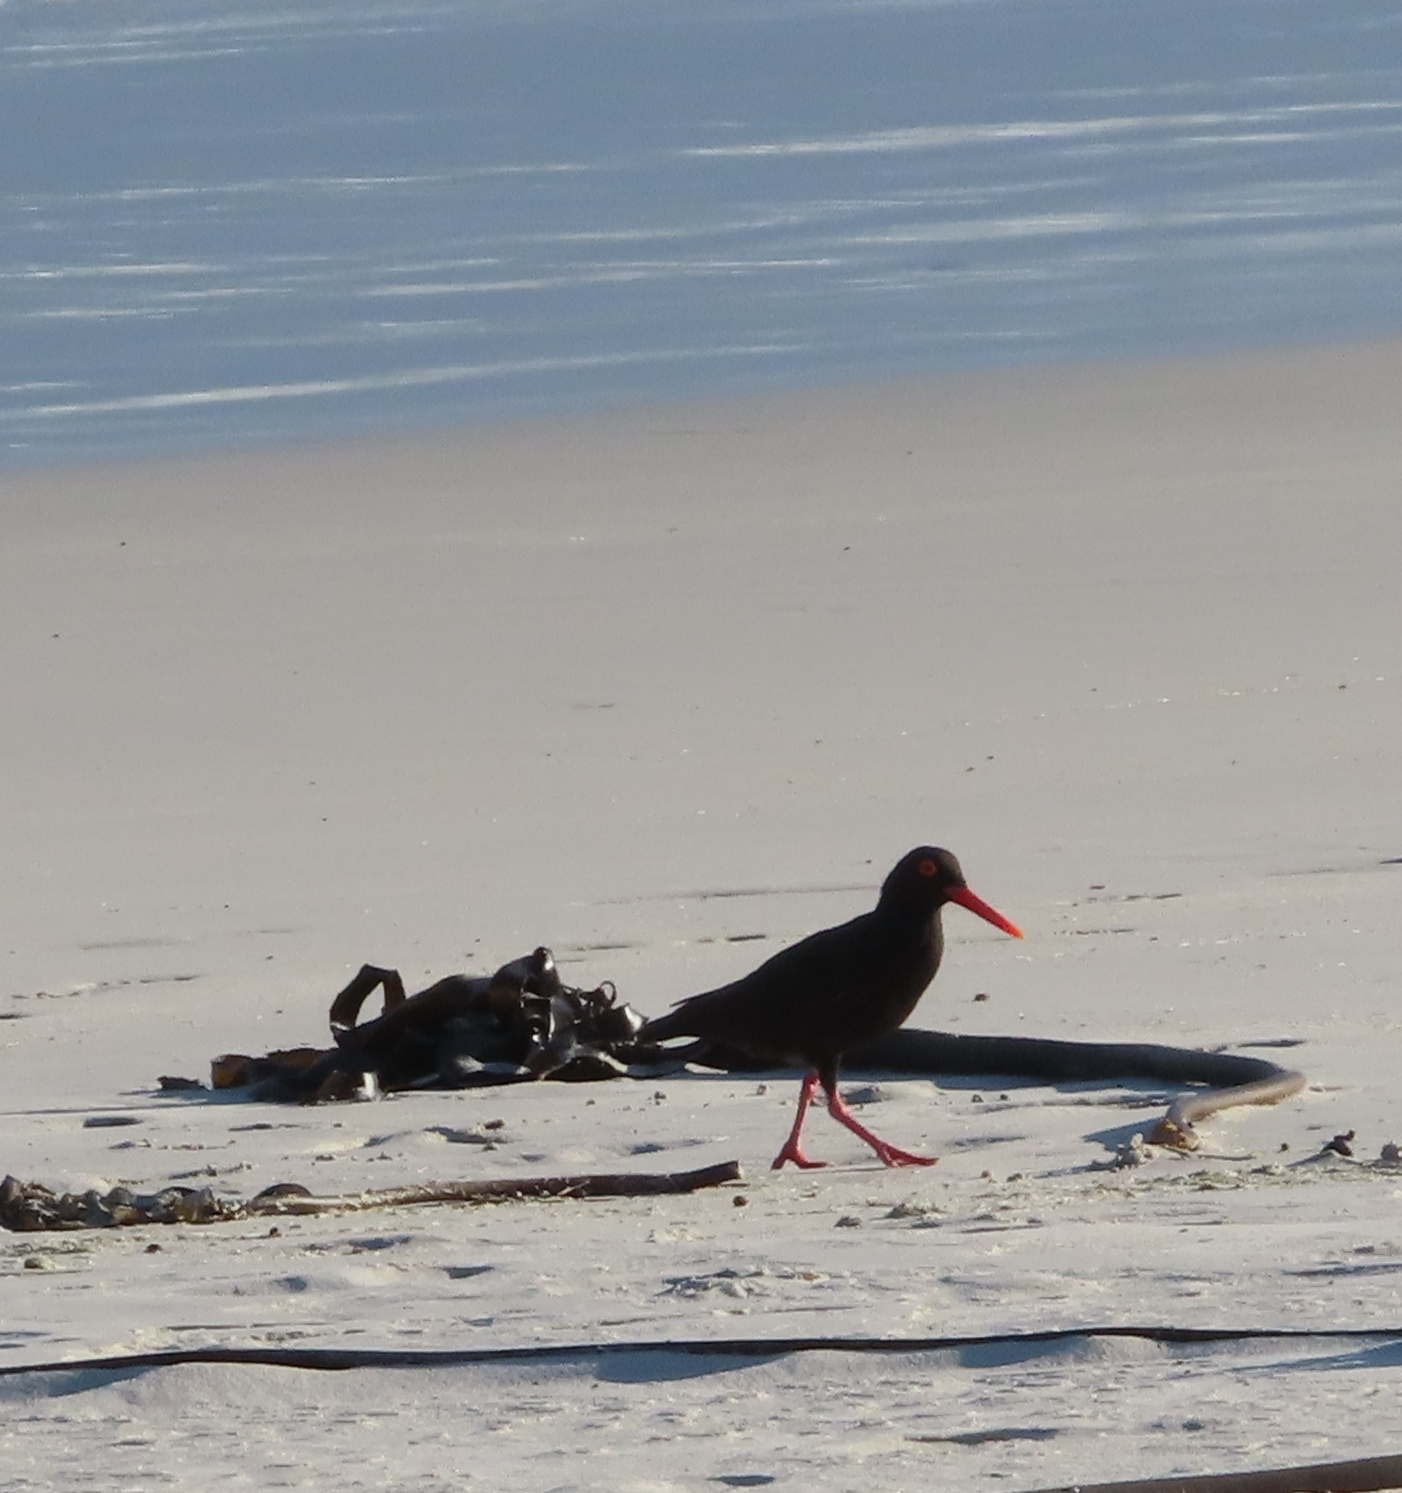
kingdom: Animalia
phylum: Chordata
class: Aves
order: Charadriiformes
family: Haematopodidae
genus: Haematopus
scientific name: Haematopus moquini
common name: African oystercatcher
